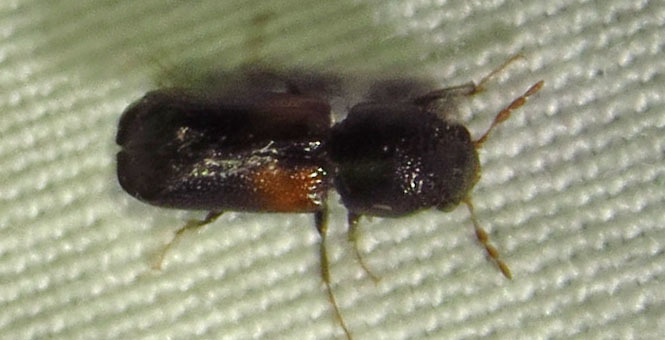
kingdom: Animalia
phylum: Arthropoda
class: Insecta
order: Coleoptera
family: Bostrichidae
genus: Xylobiops
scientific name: Xylobiops basilaris
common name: Red-shouldered bostrichid
